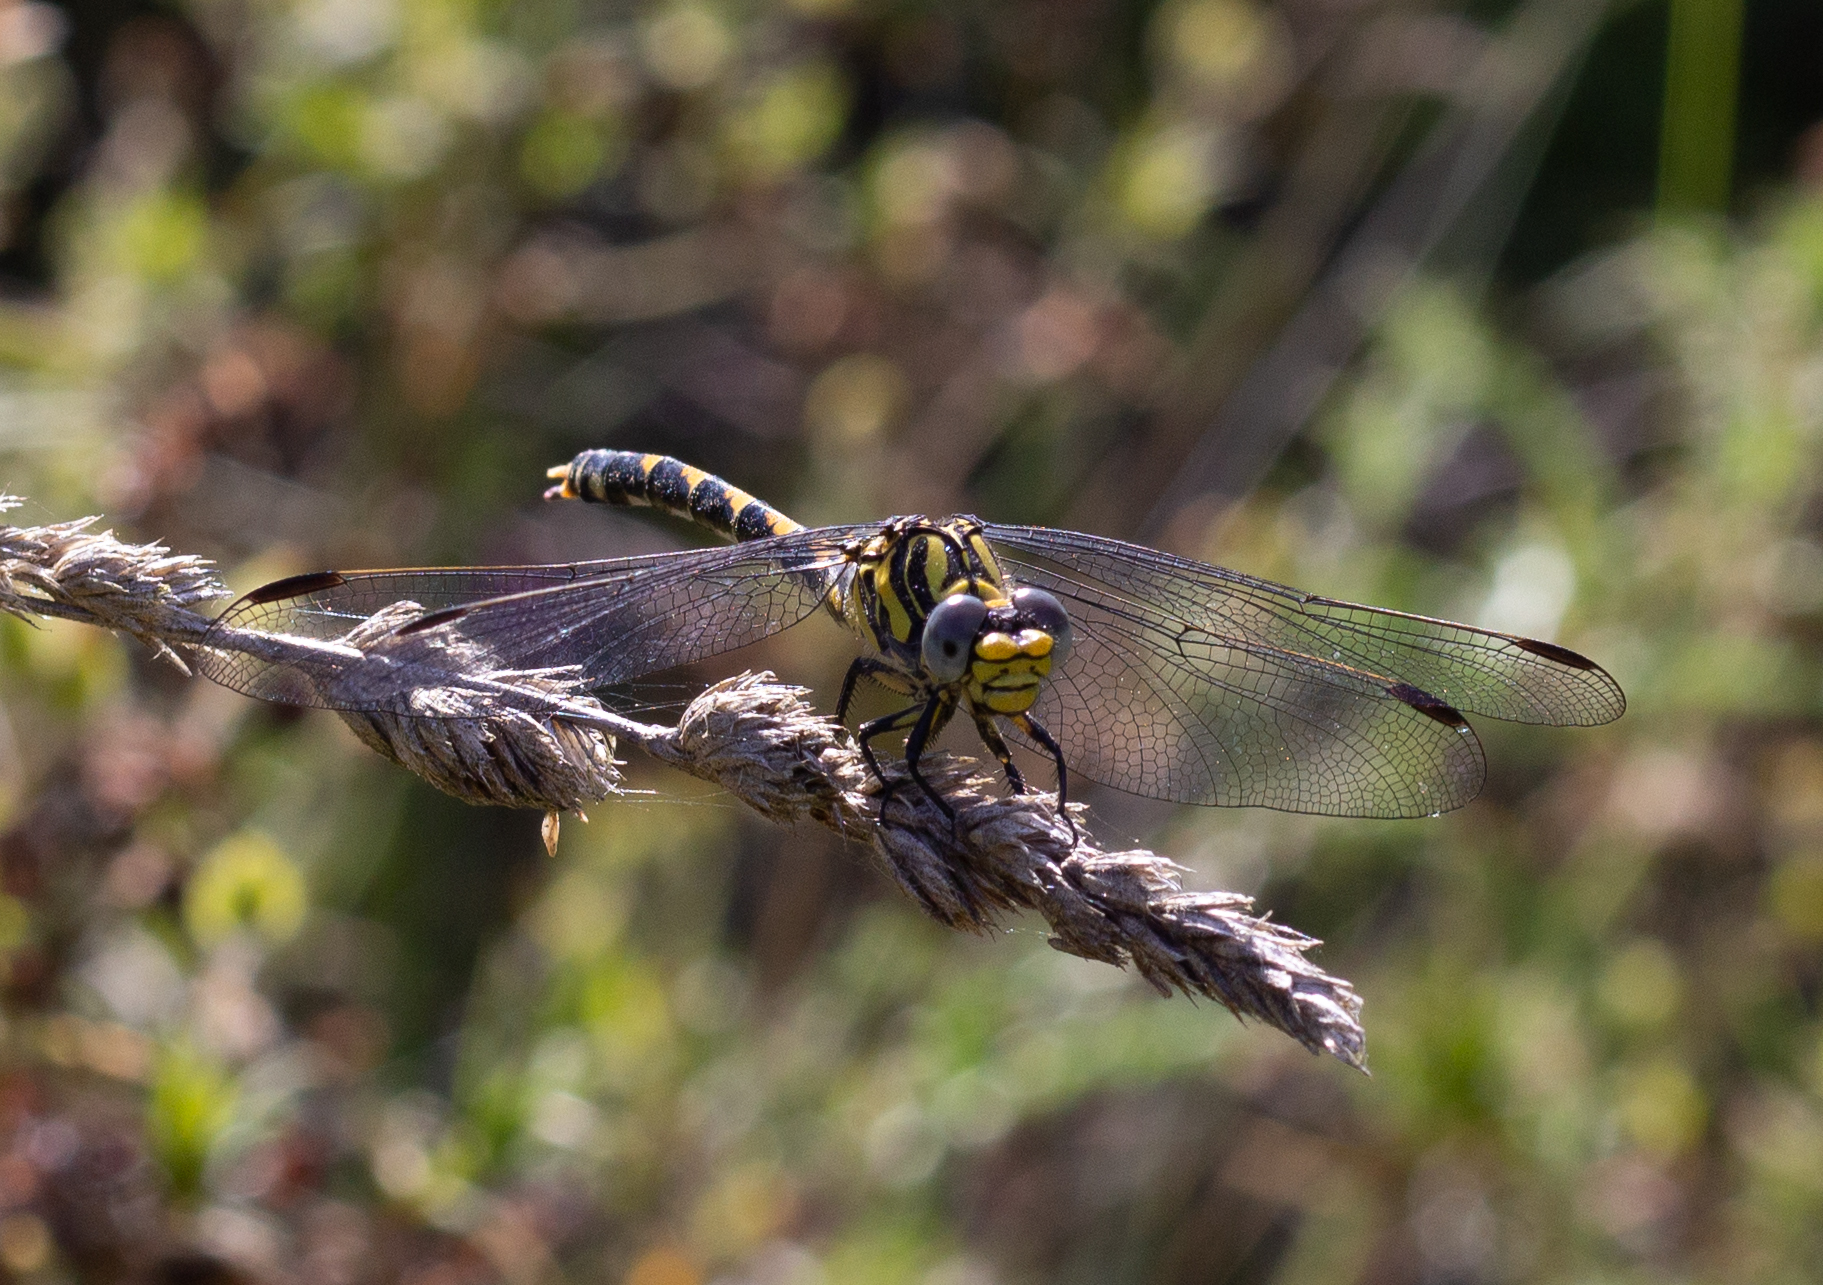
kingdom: Animalia
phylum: Arthropoda
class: Insecta
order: Odonata
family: Gomphidae
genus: Onychogomphus
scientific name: Onychogomphus uncatus
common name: Large pincertail
